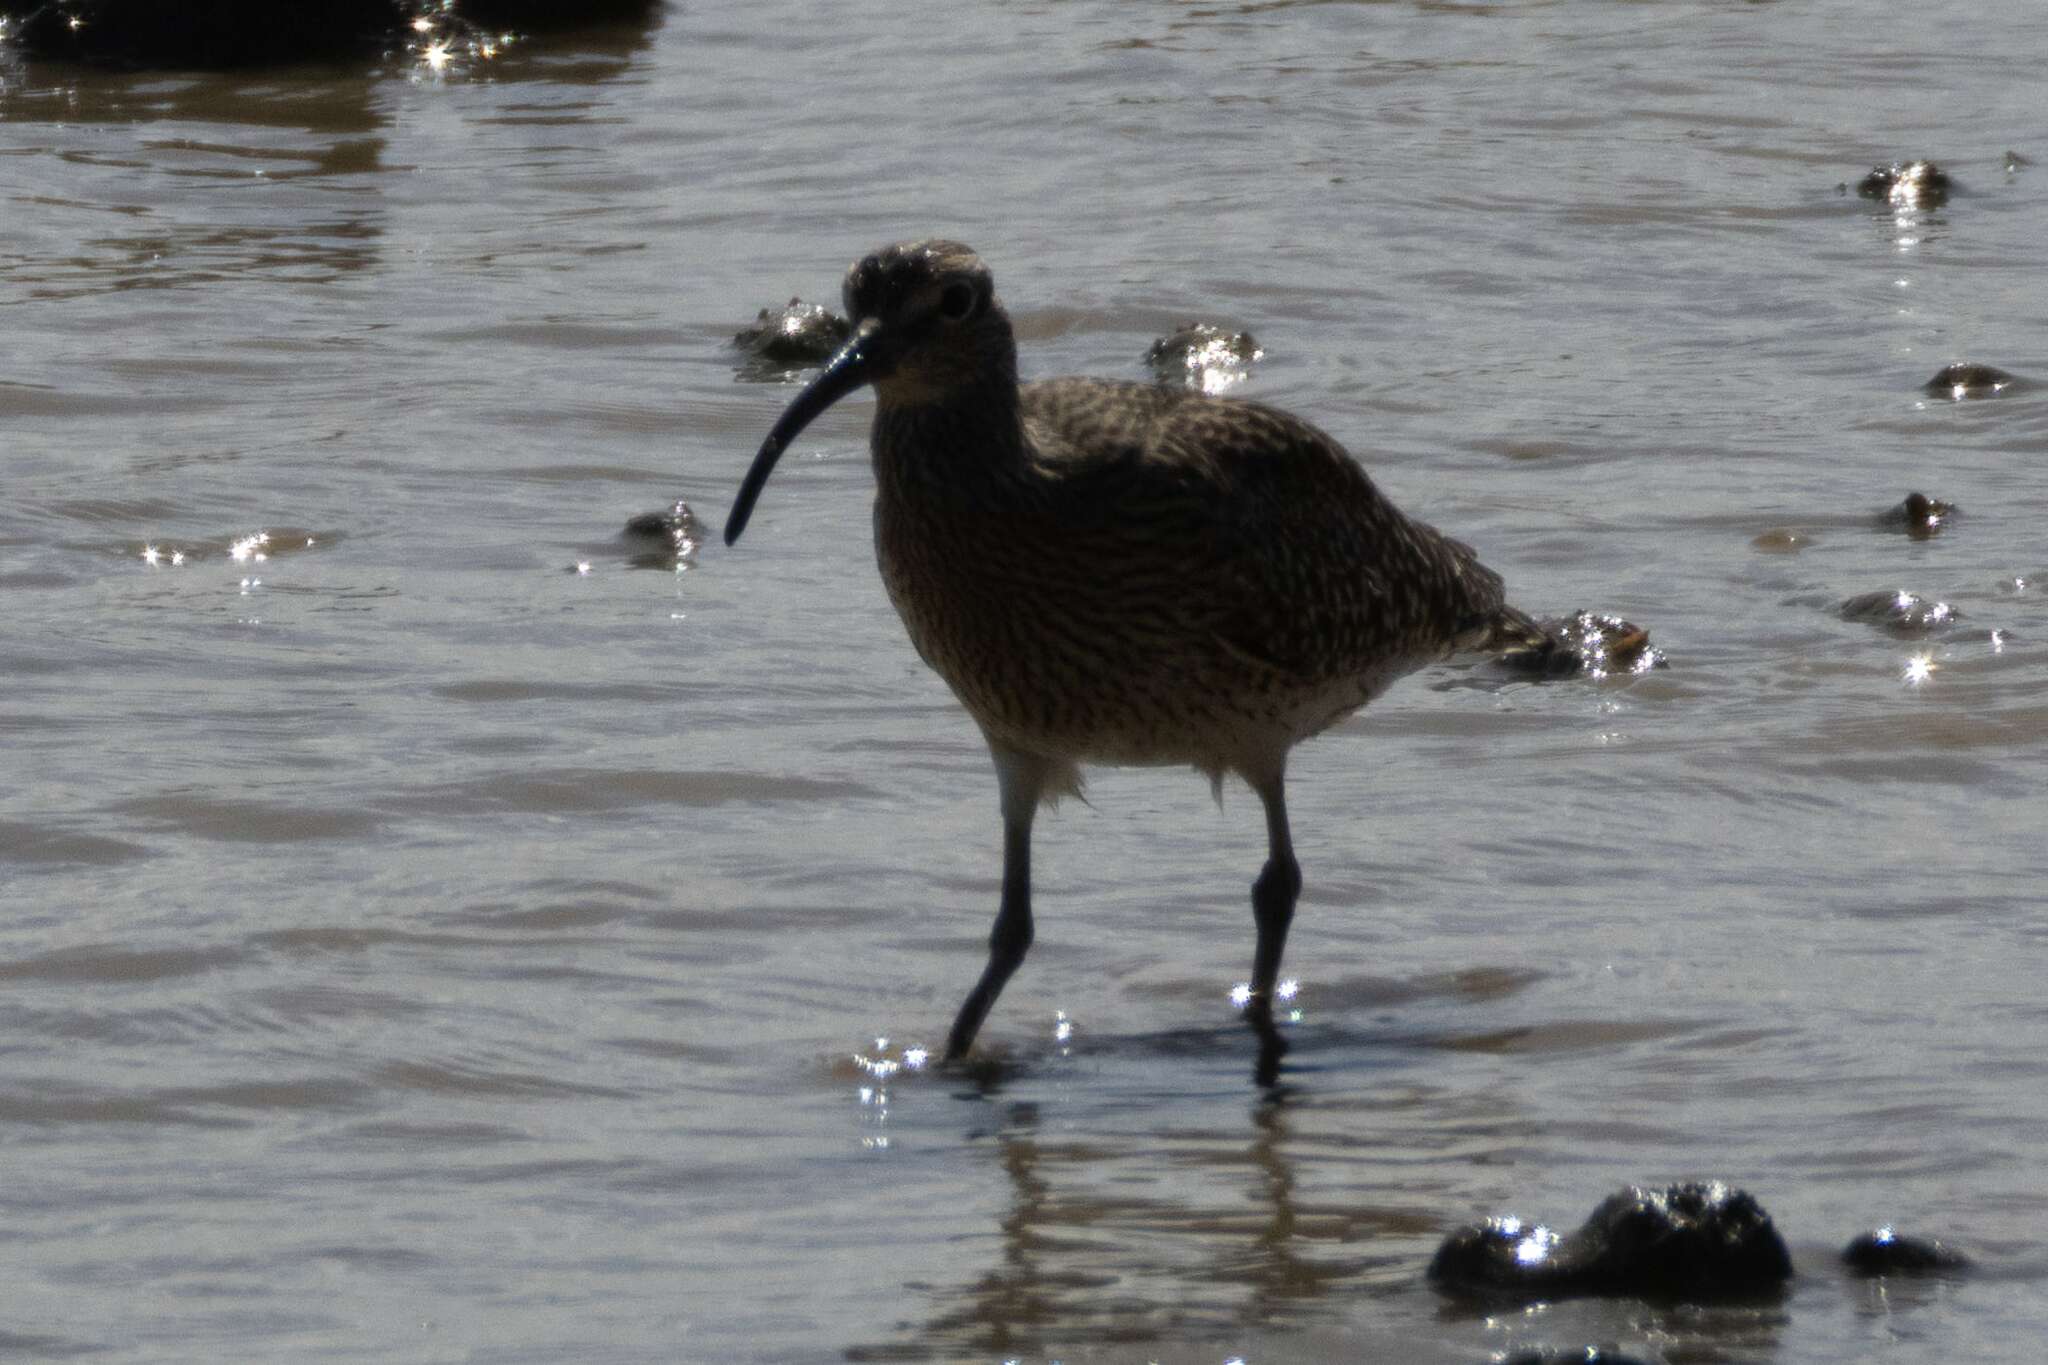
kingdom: Animalia
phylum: Chordata
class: Aves
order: Charadriiformes
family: Scolopacidae
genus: Numenius
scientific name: Numenius phaeopus
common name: Whimbrel
